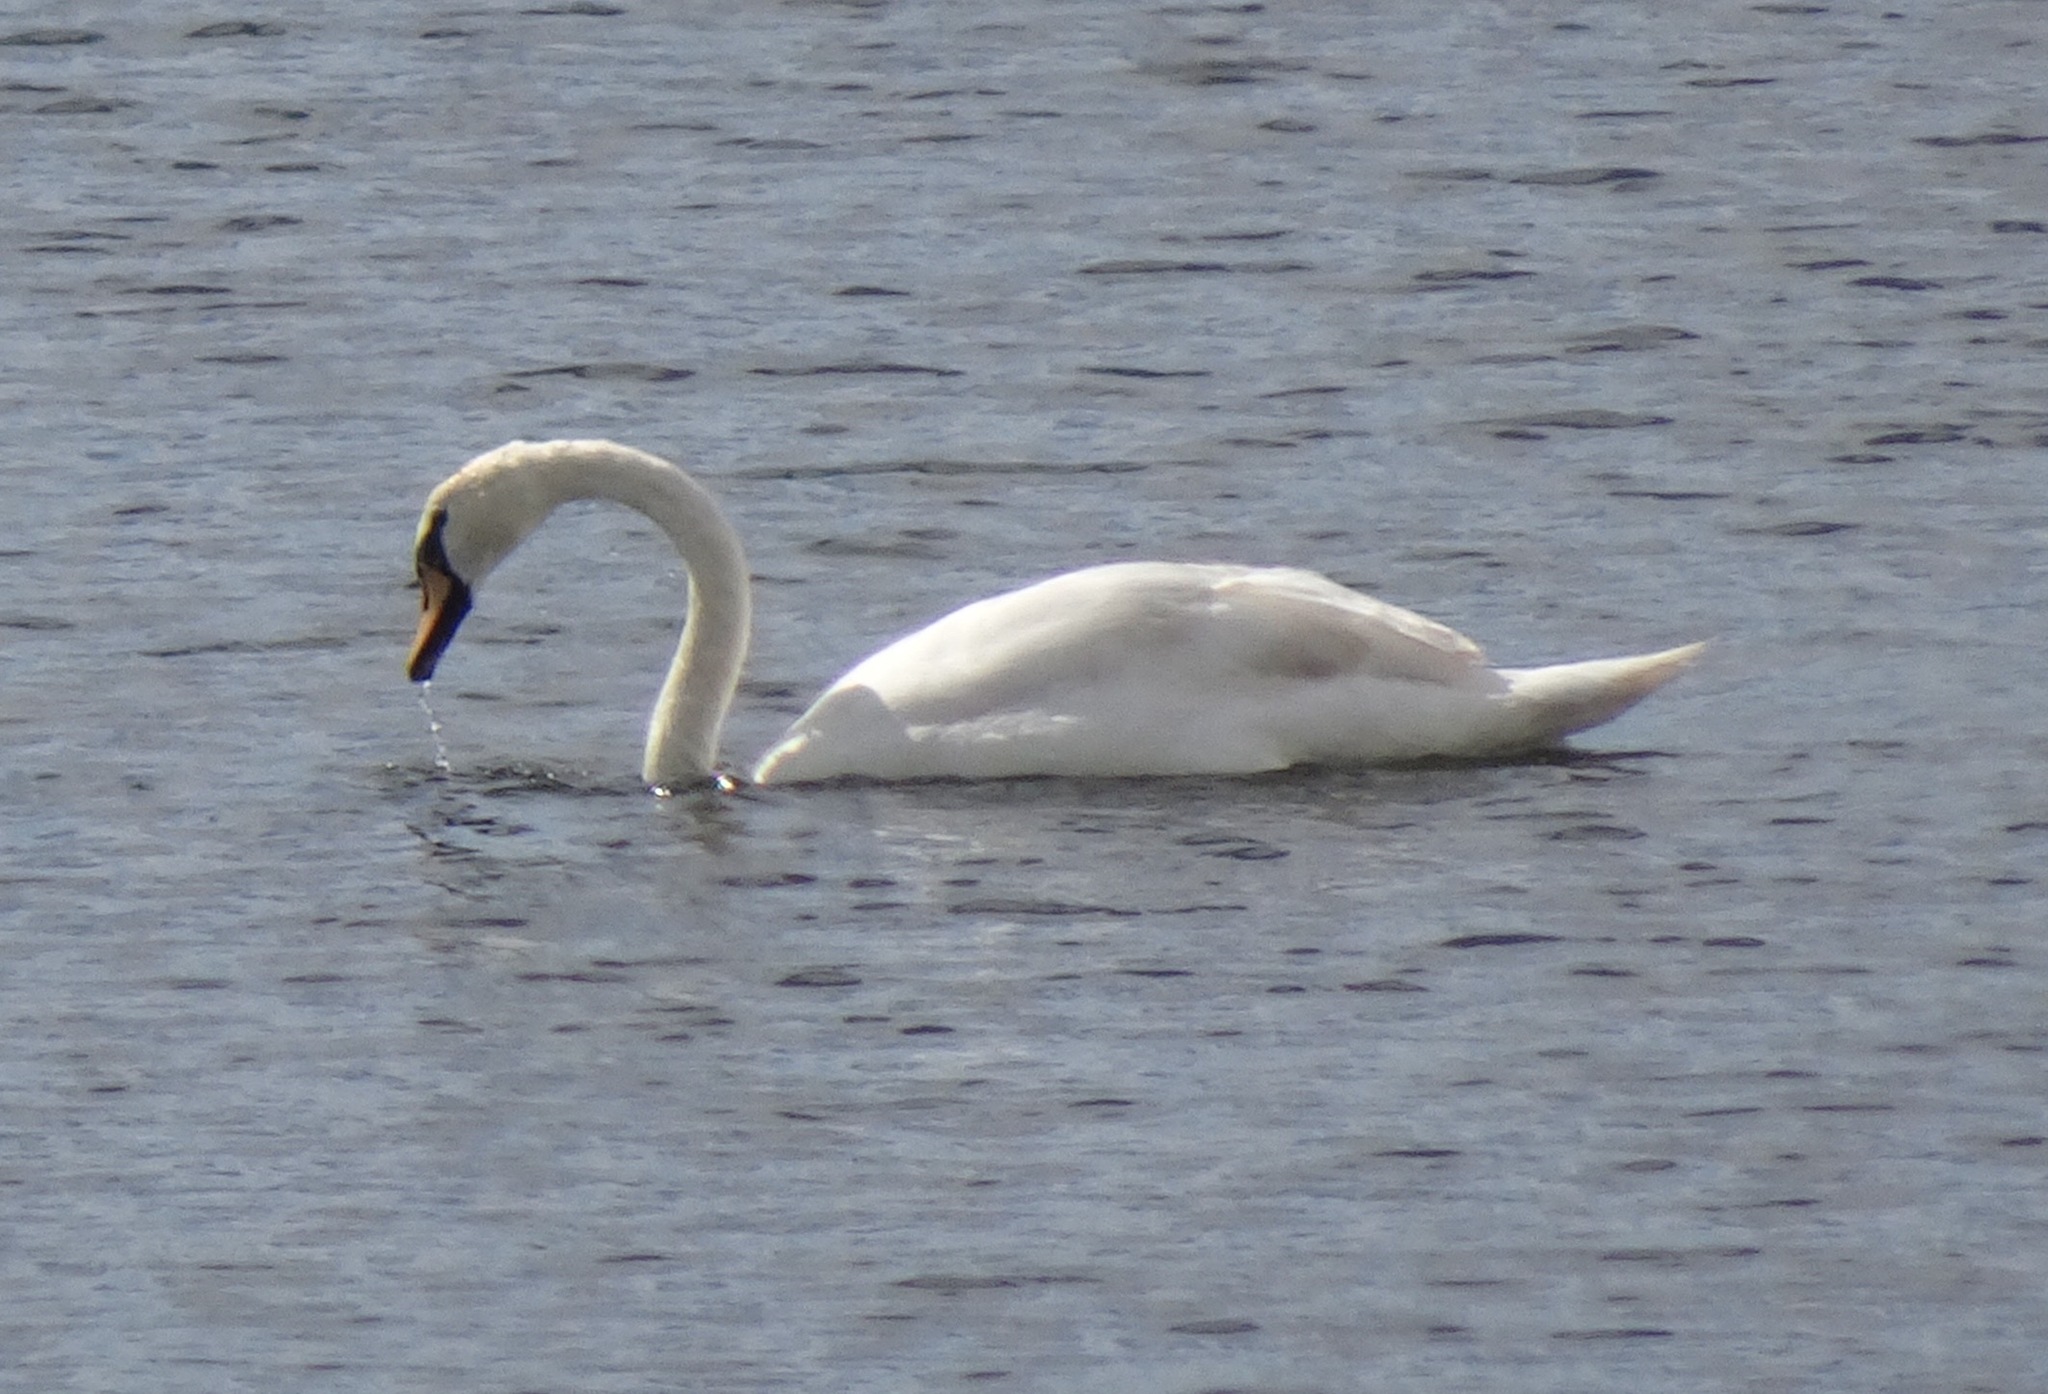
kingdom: Animalia
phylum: Chordata
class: Aves
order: Anseriformes
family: Anatidae
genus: Cygnus
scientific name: Cygnus olor
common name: Mute swan
